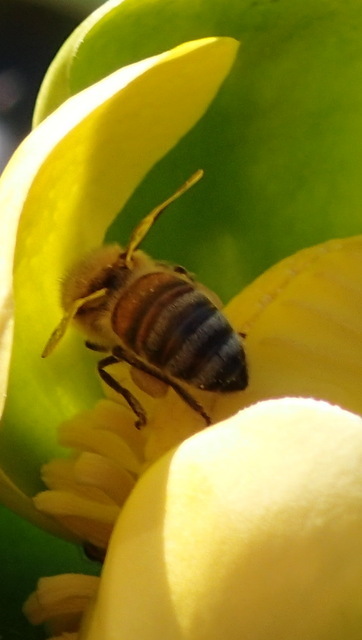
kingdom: Animalia
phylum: Arthropoda
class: Insecta
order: Hymenoptera
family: Apidae
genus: Apis
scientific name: Apis mellifera
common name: Honey bee
